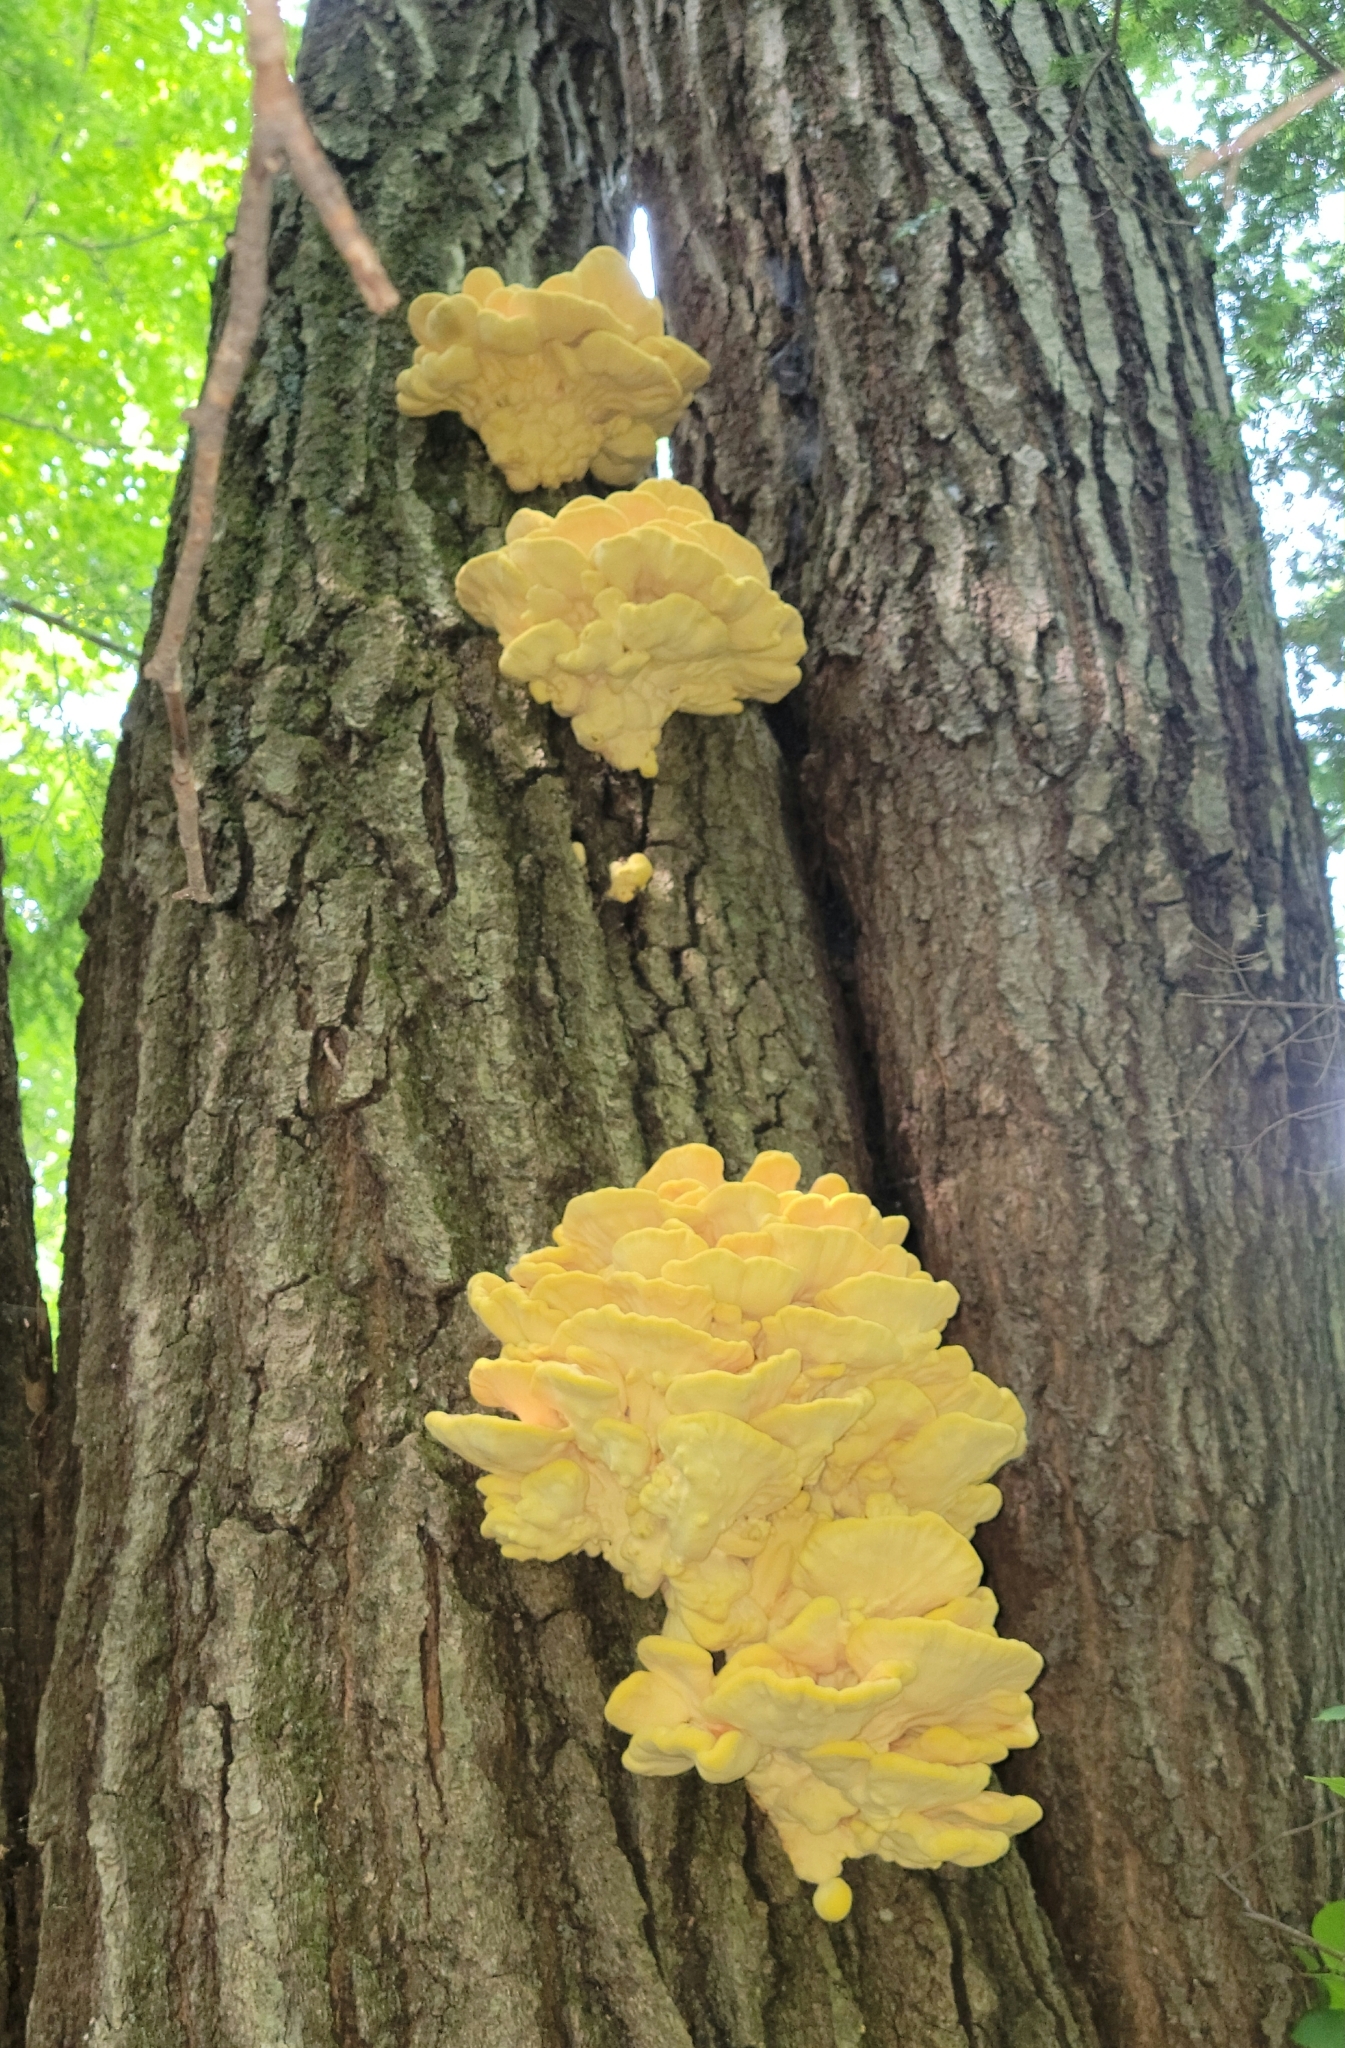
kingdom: Fungi
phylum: Basidiomycota
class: Agaricomycetes
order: Polyporales
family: Laetiporaceae
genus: Laetiporus
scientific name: Laetiporus sulphureus
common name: Chicken of the woods
